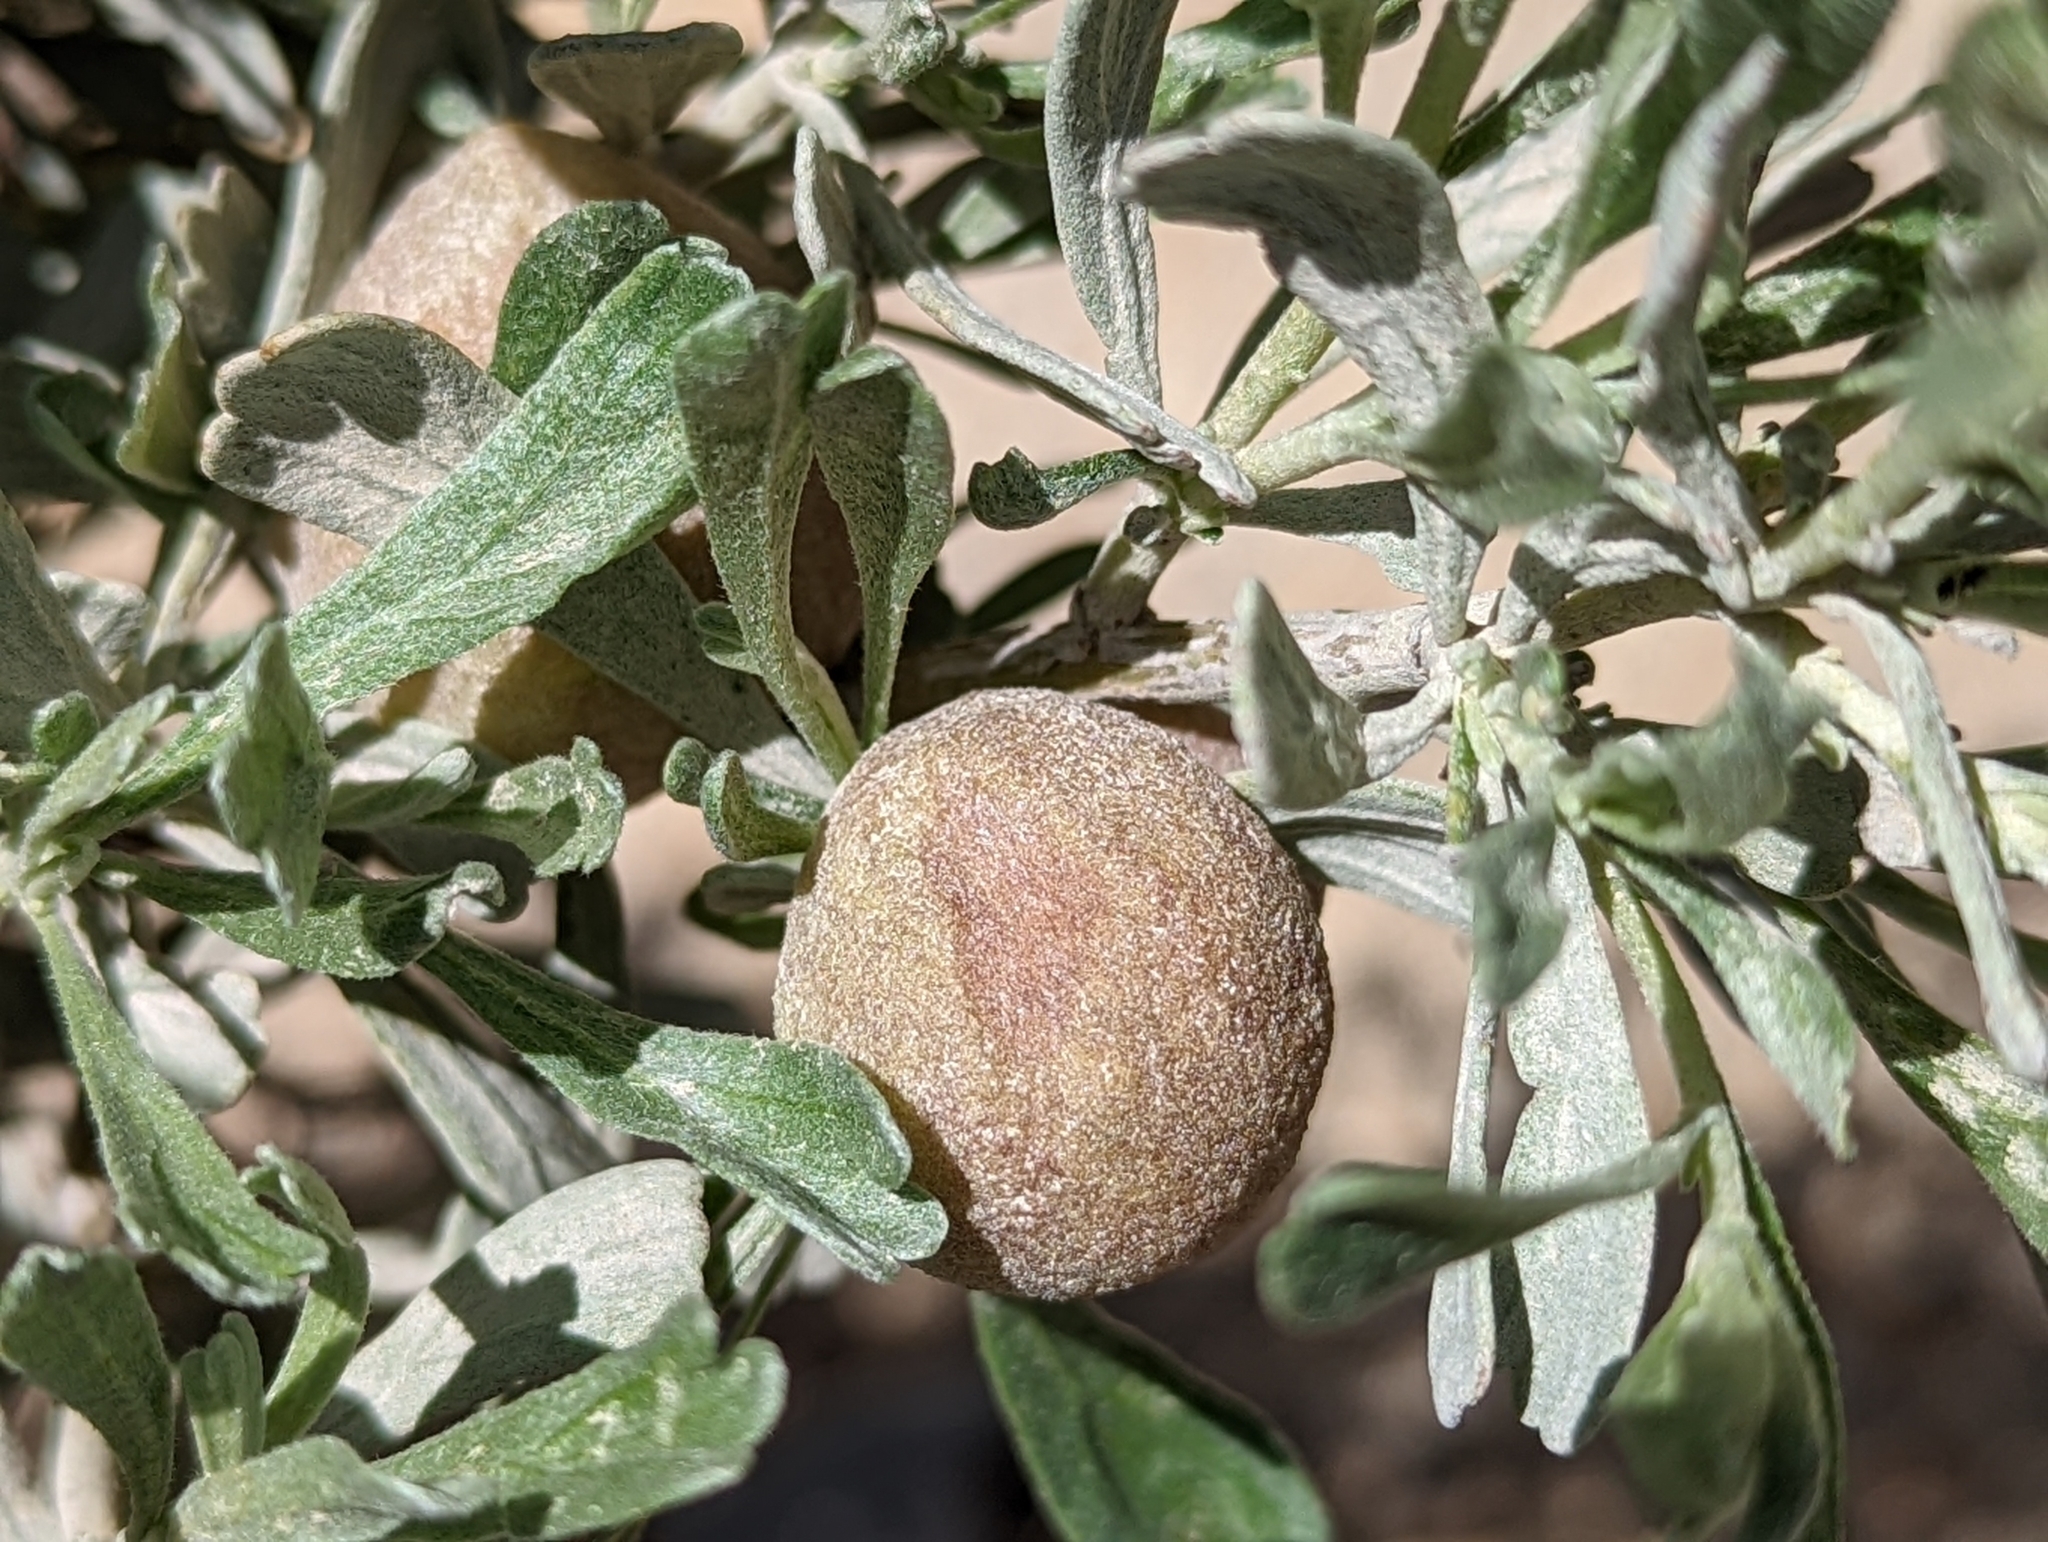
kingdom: Animalia
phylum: Arthropoda
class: Insecta
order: Diptera
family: Cecidomyiidae
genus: Rhopalomyia
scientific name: Rhopalomyia pomum
